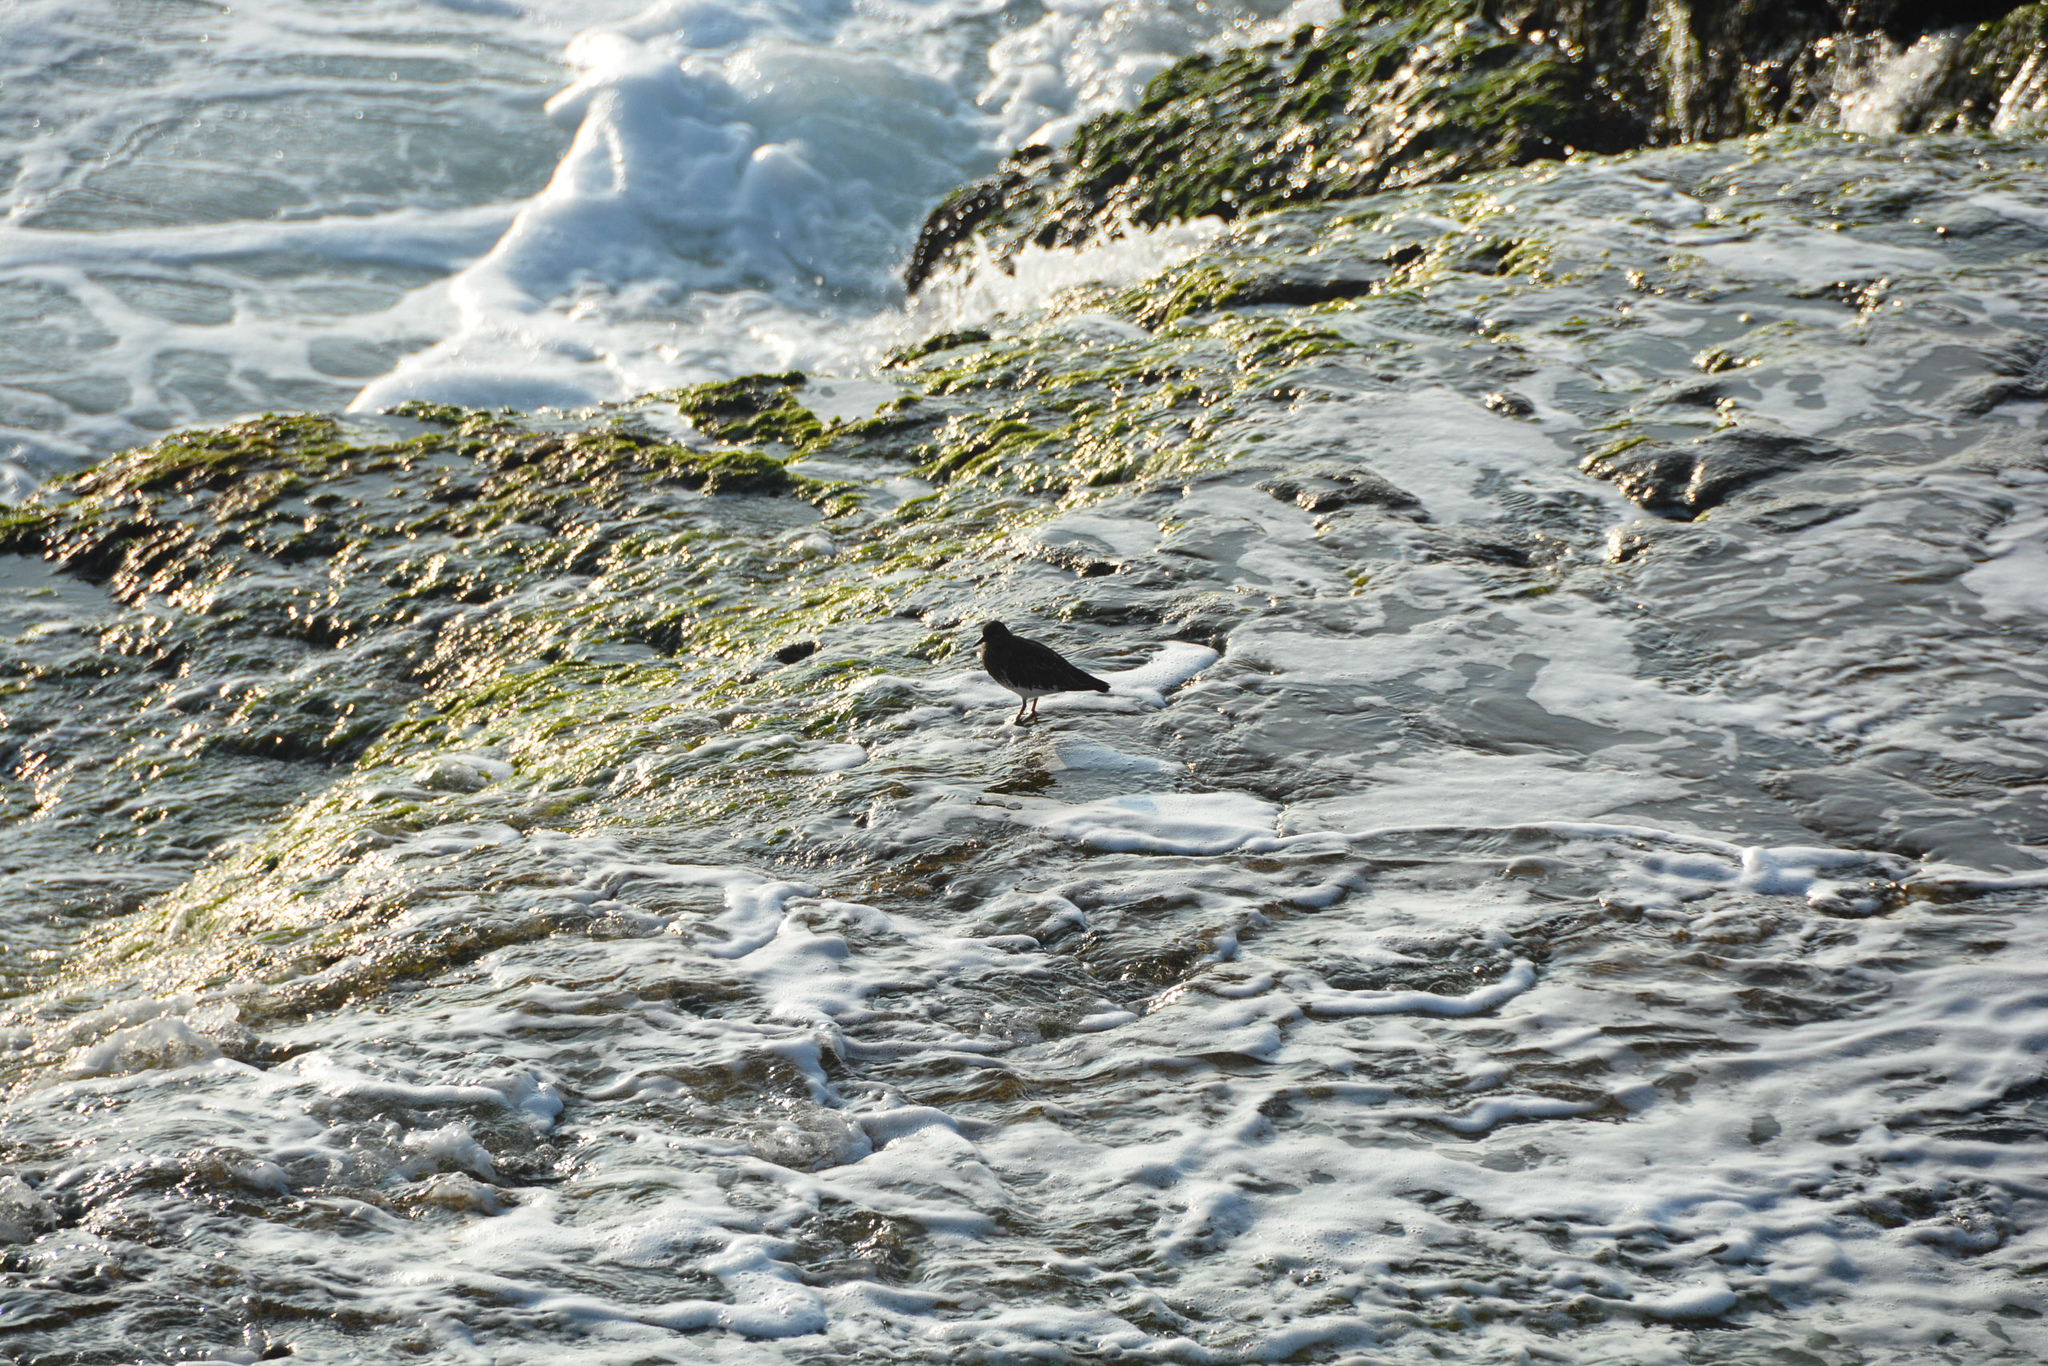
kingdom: Animalia
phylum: Chordata
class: Aves
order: Charadriiformes
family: Scolopacidae
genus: Arenaria
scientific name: Arenaria melanocephala
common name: Black turnstone
